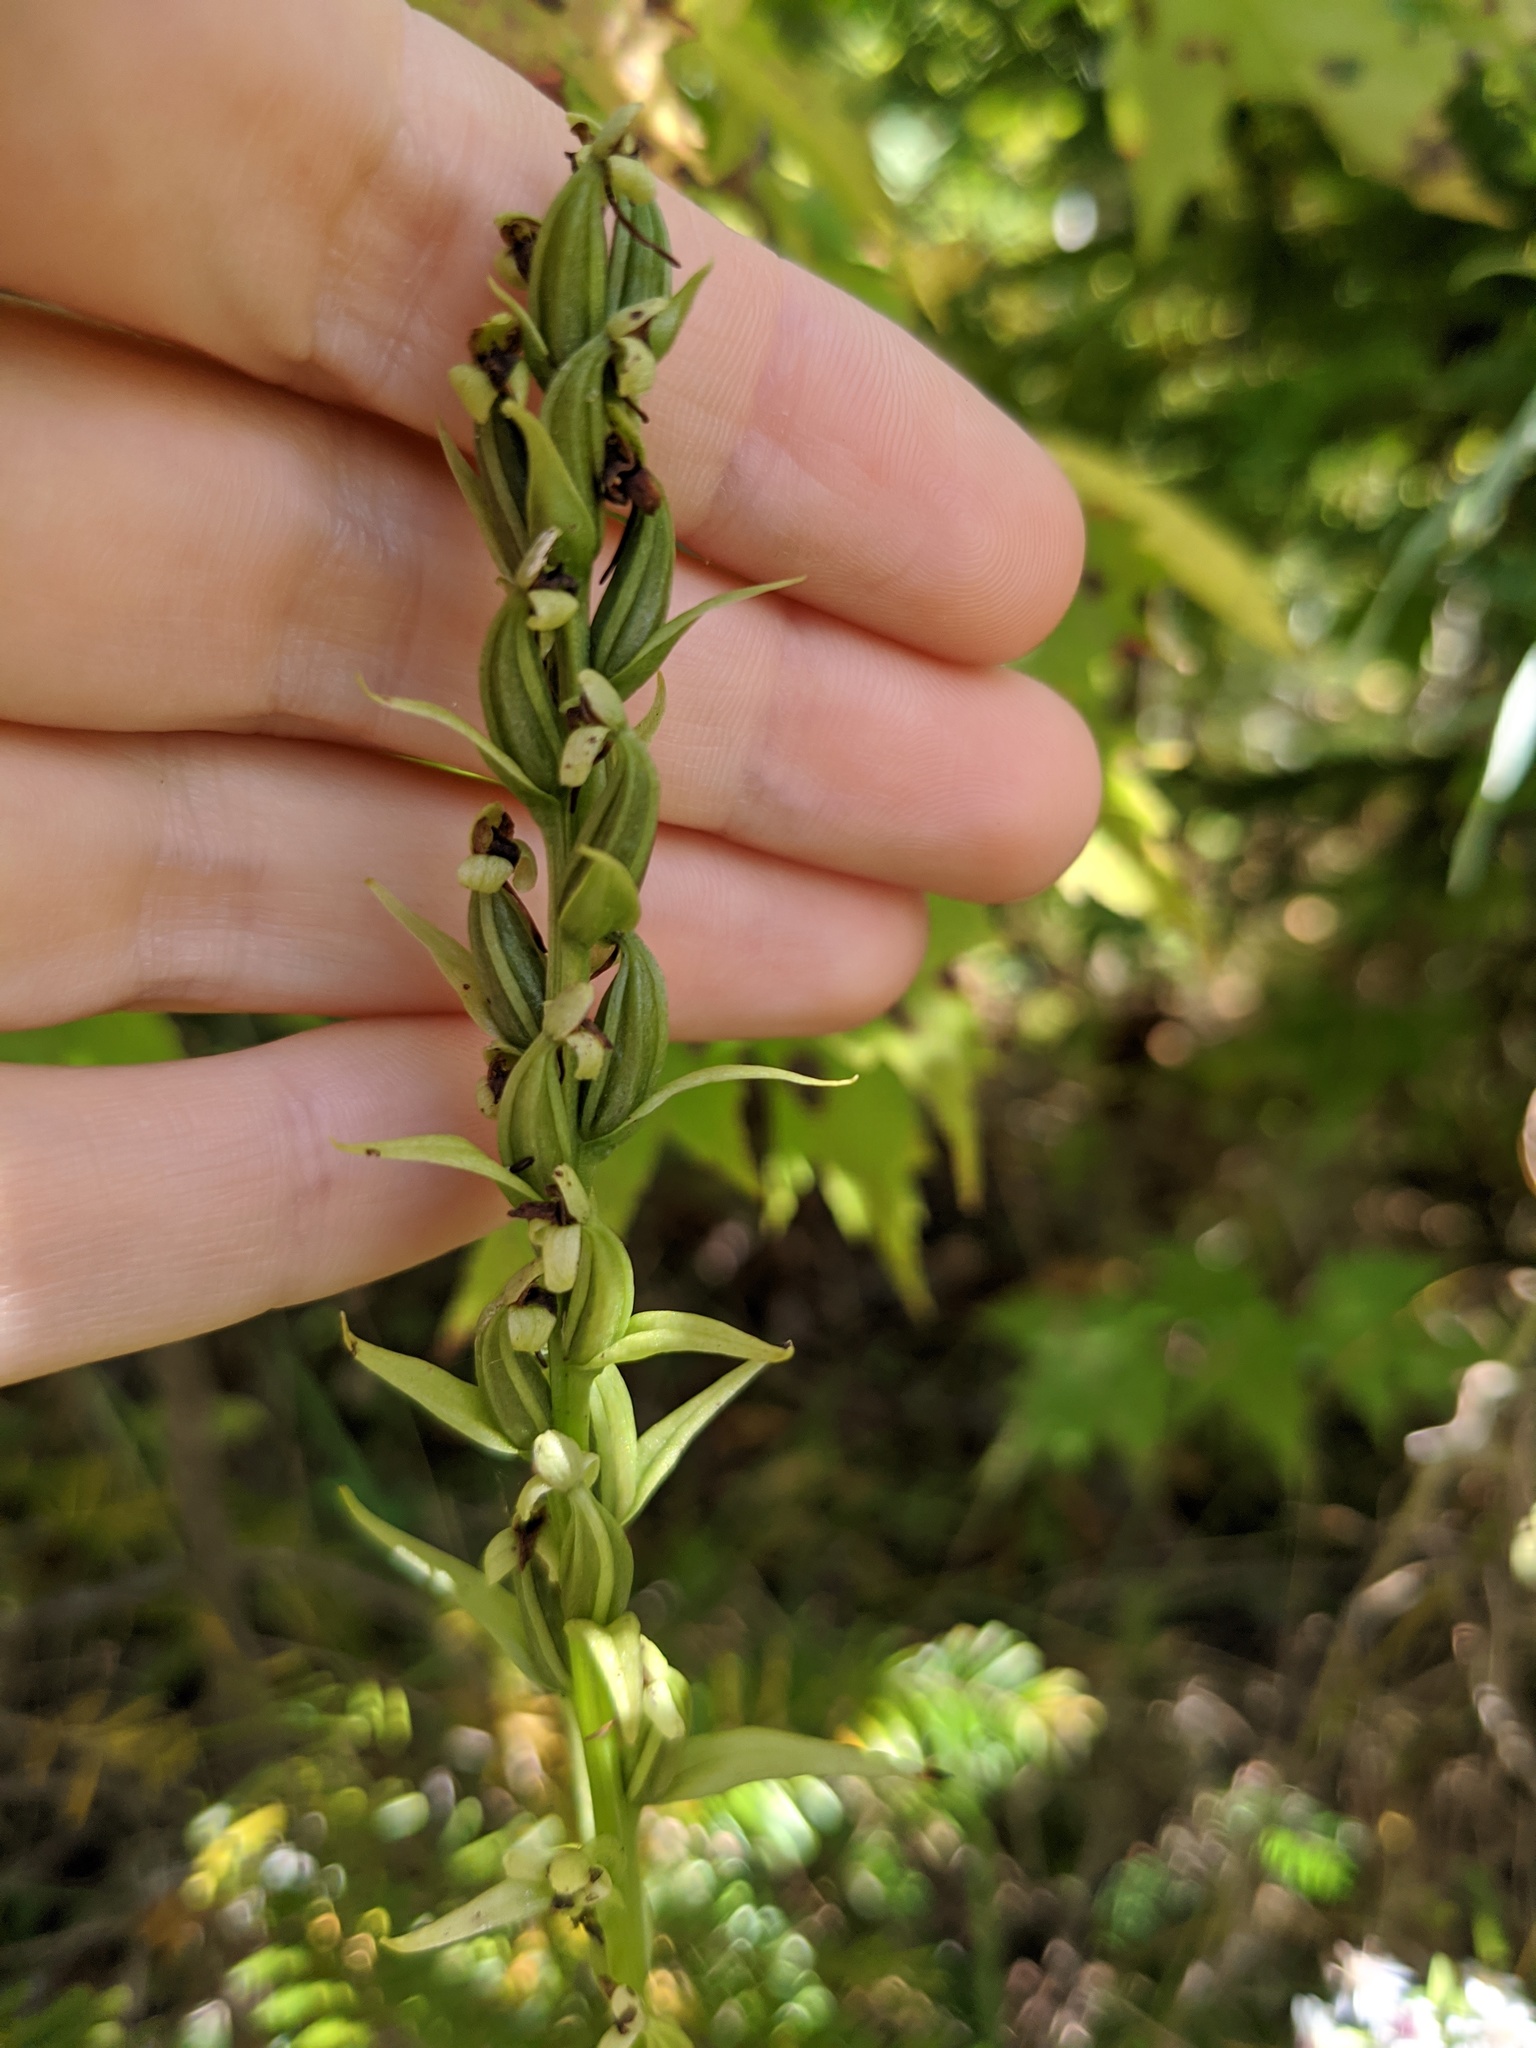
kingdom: Plantae
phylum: Tracheophyta
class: Liliopsida
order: Asparagales
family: Orchidaceae
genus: Platanthera
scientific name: Platanthera flava
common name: Gypsy-spikes
